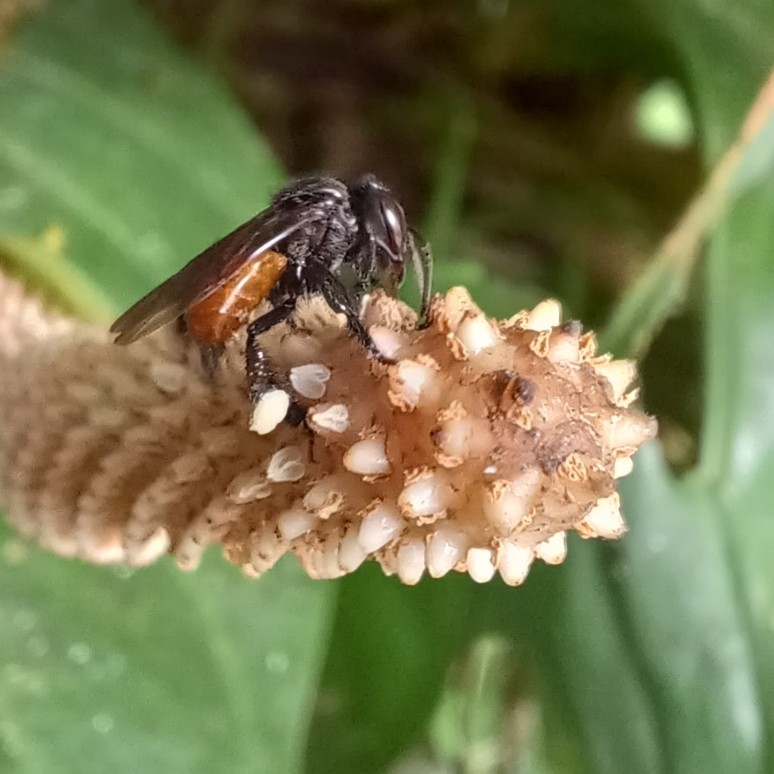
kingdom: Animalia
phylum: Arthropoda
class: Insecta
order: Hymenoptera
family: Apidae
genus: Trigona
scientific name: Trigona fulviventris
